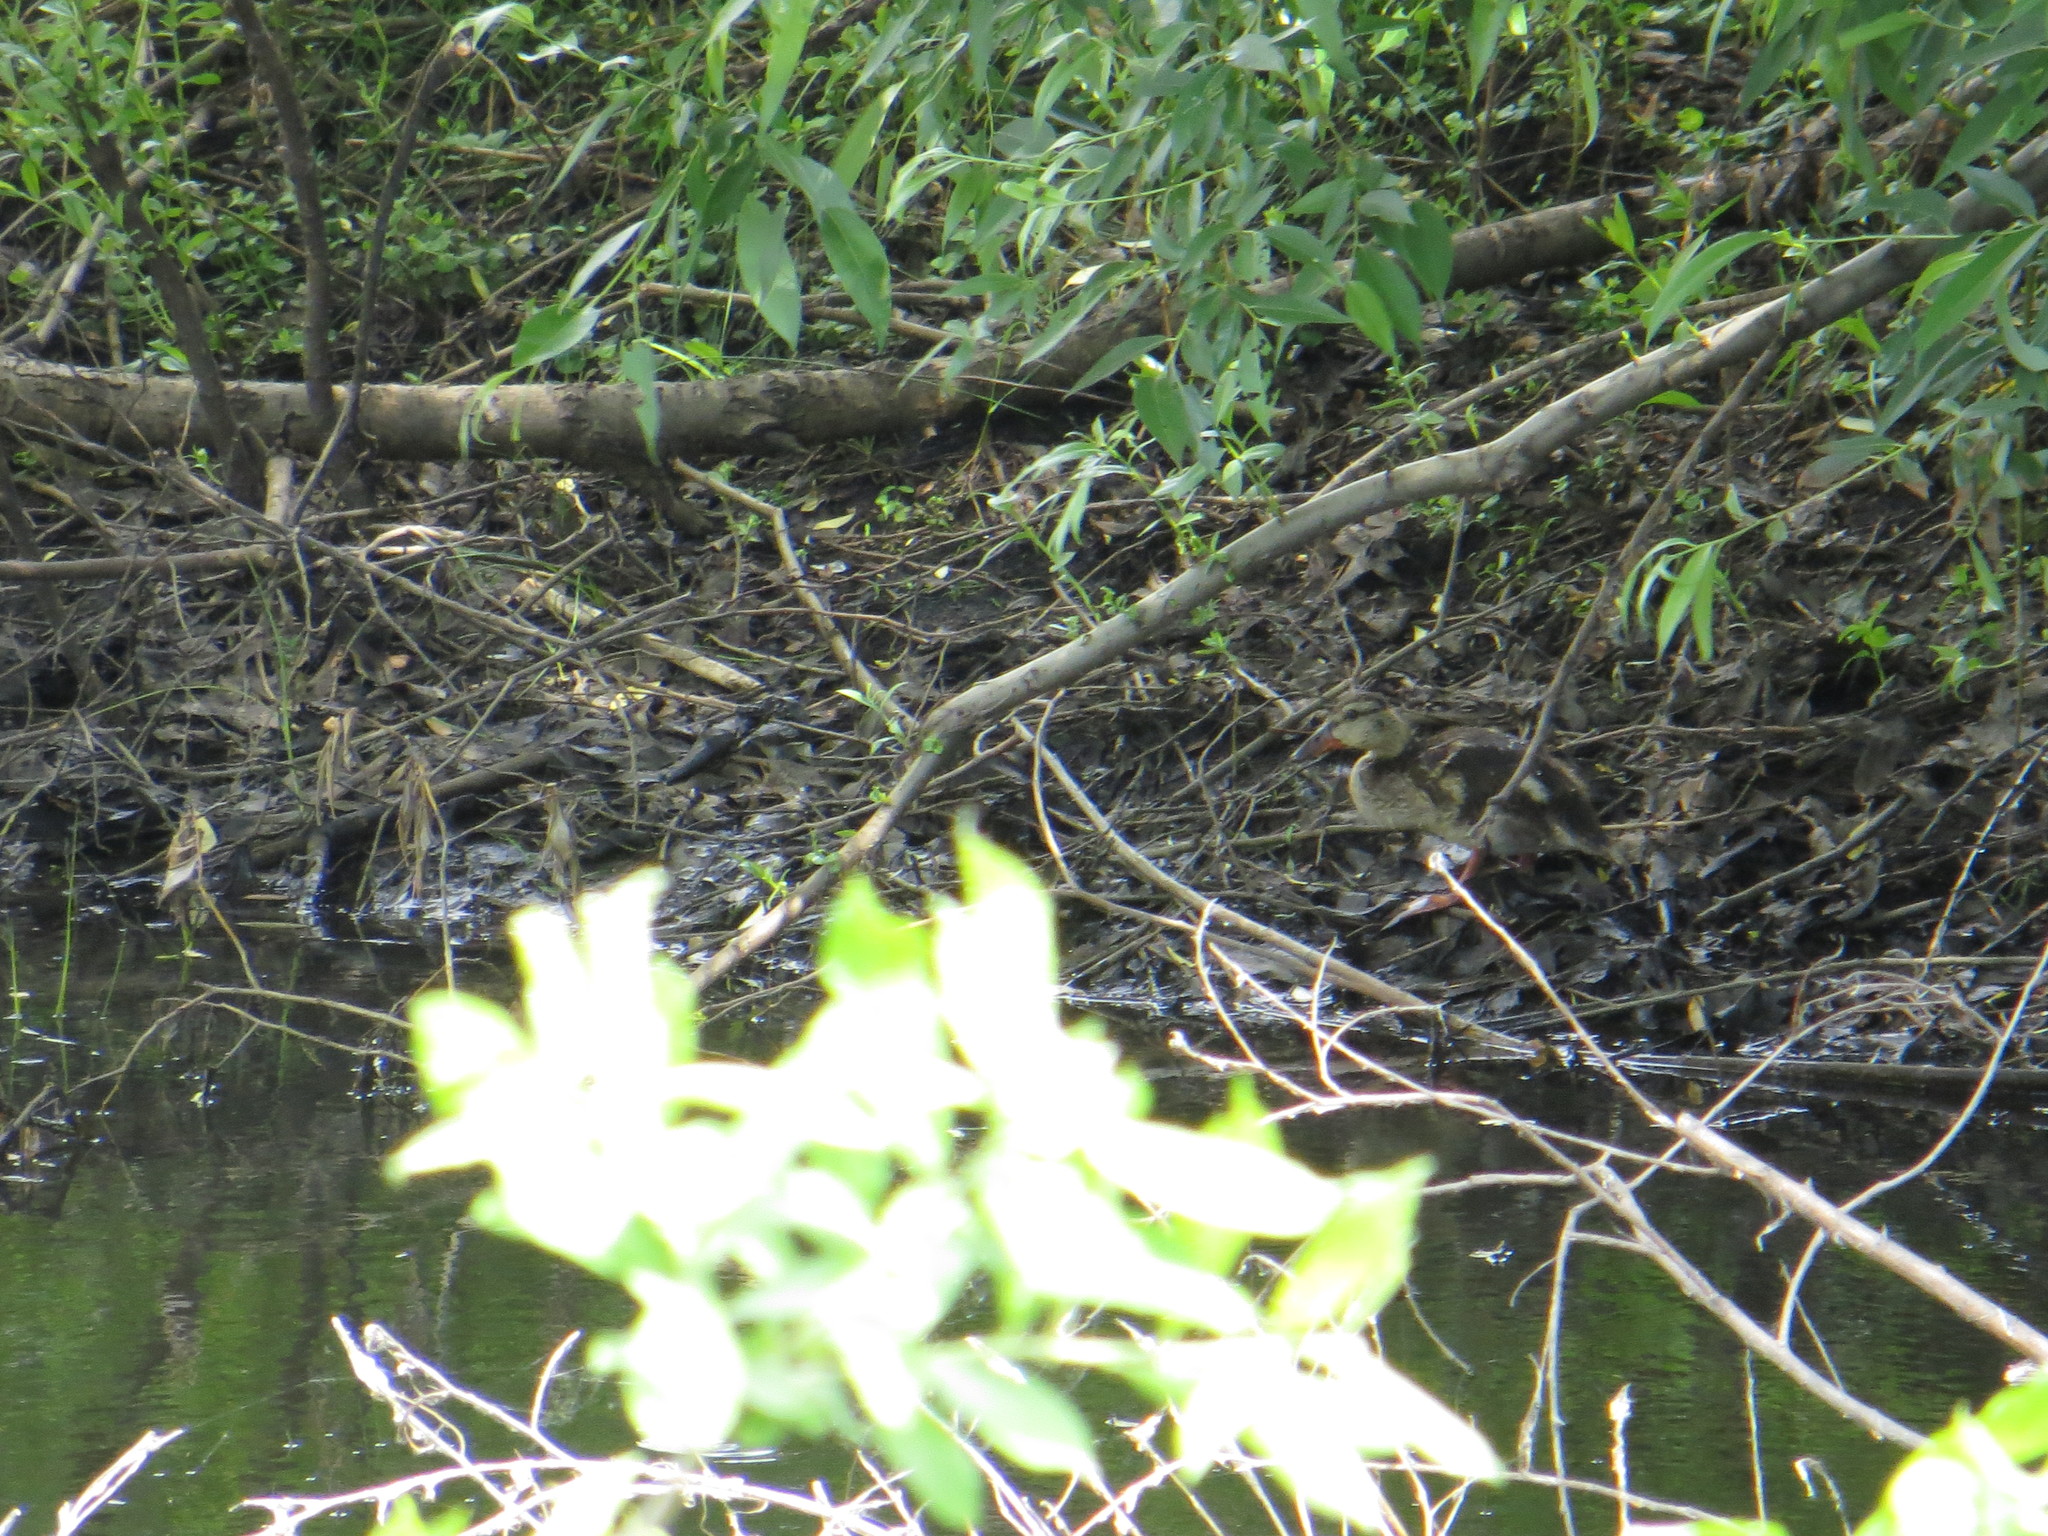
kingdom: Animalia
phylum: Chordata
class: Aves
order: Anseriformes
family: Anatidae
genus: Anas
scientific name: Anas platyrhynchos
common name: Mallard
